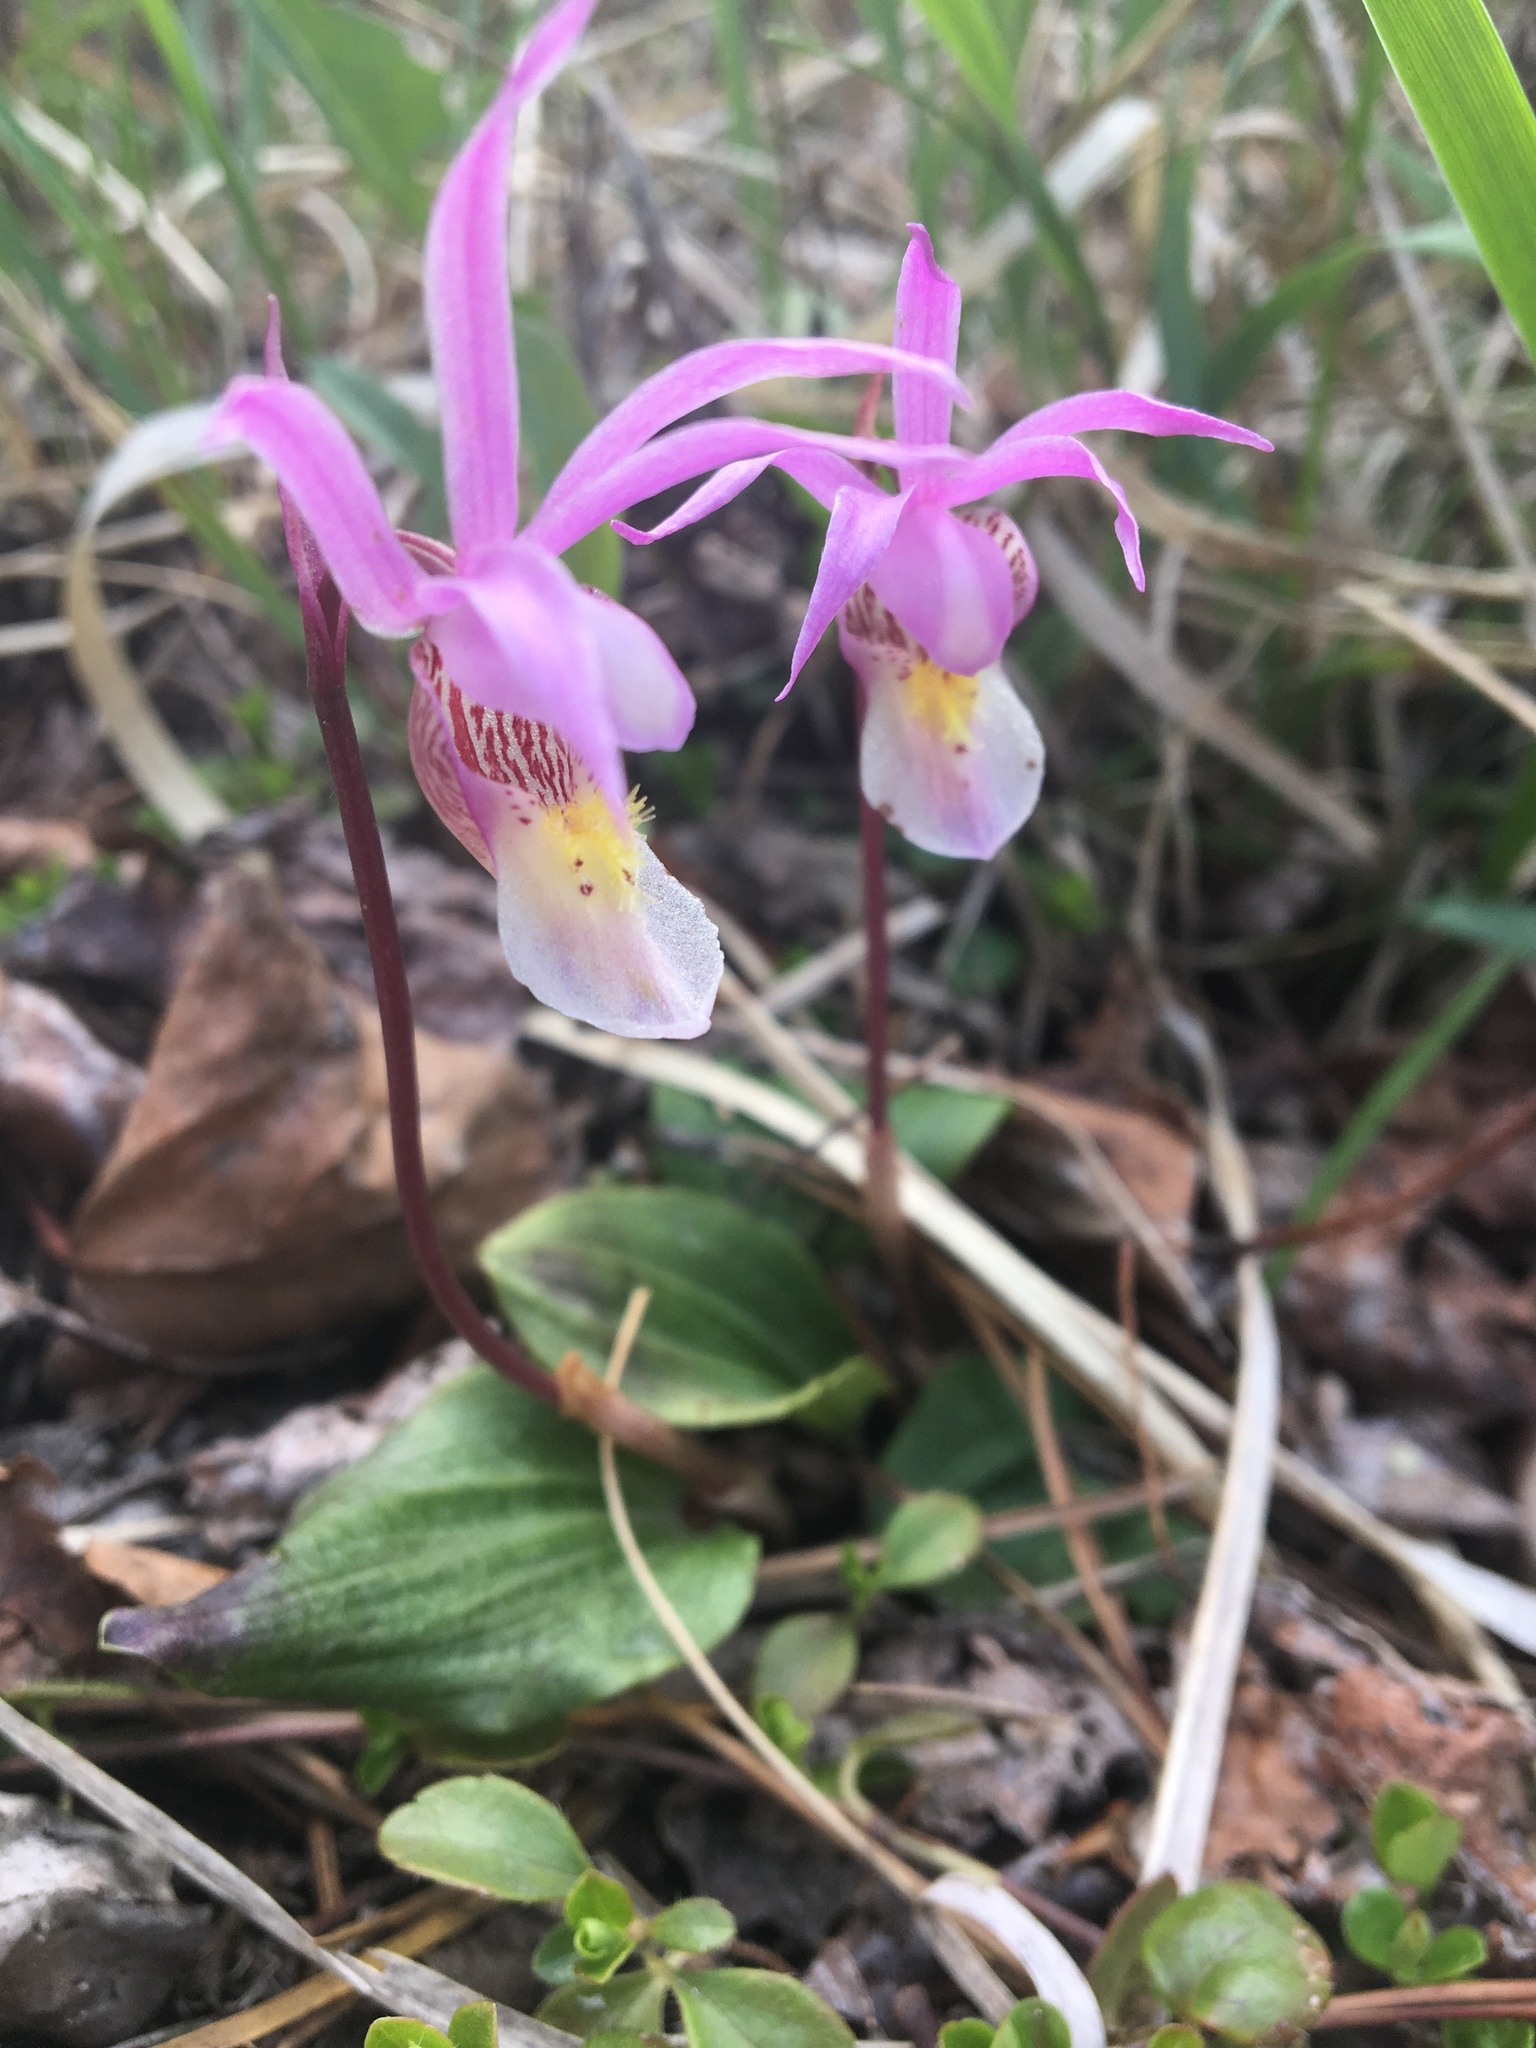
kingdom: Plantae
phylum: Tracheophyta
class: Liliopsida
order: Asparagales
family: Orchidaceae
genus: Calypso
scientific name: Calypso bulbosa
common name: Calypso
